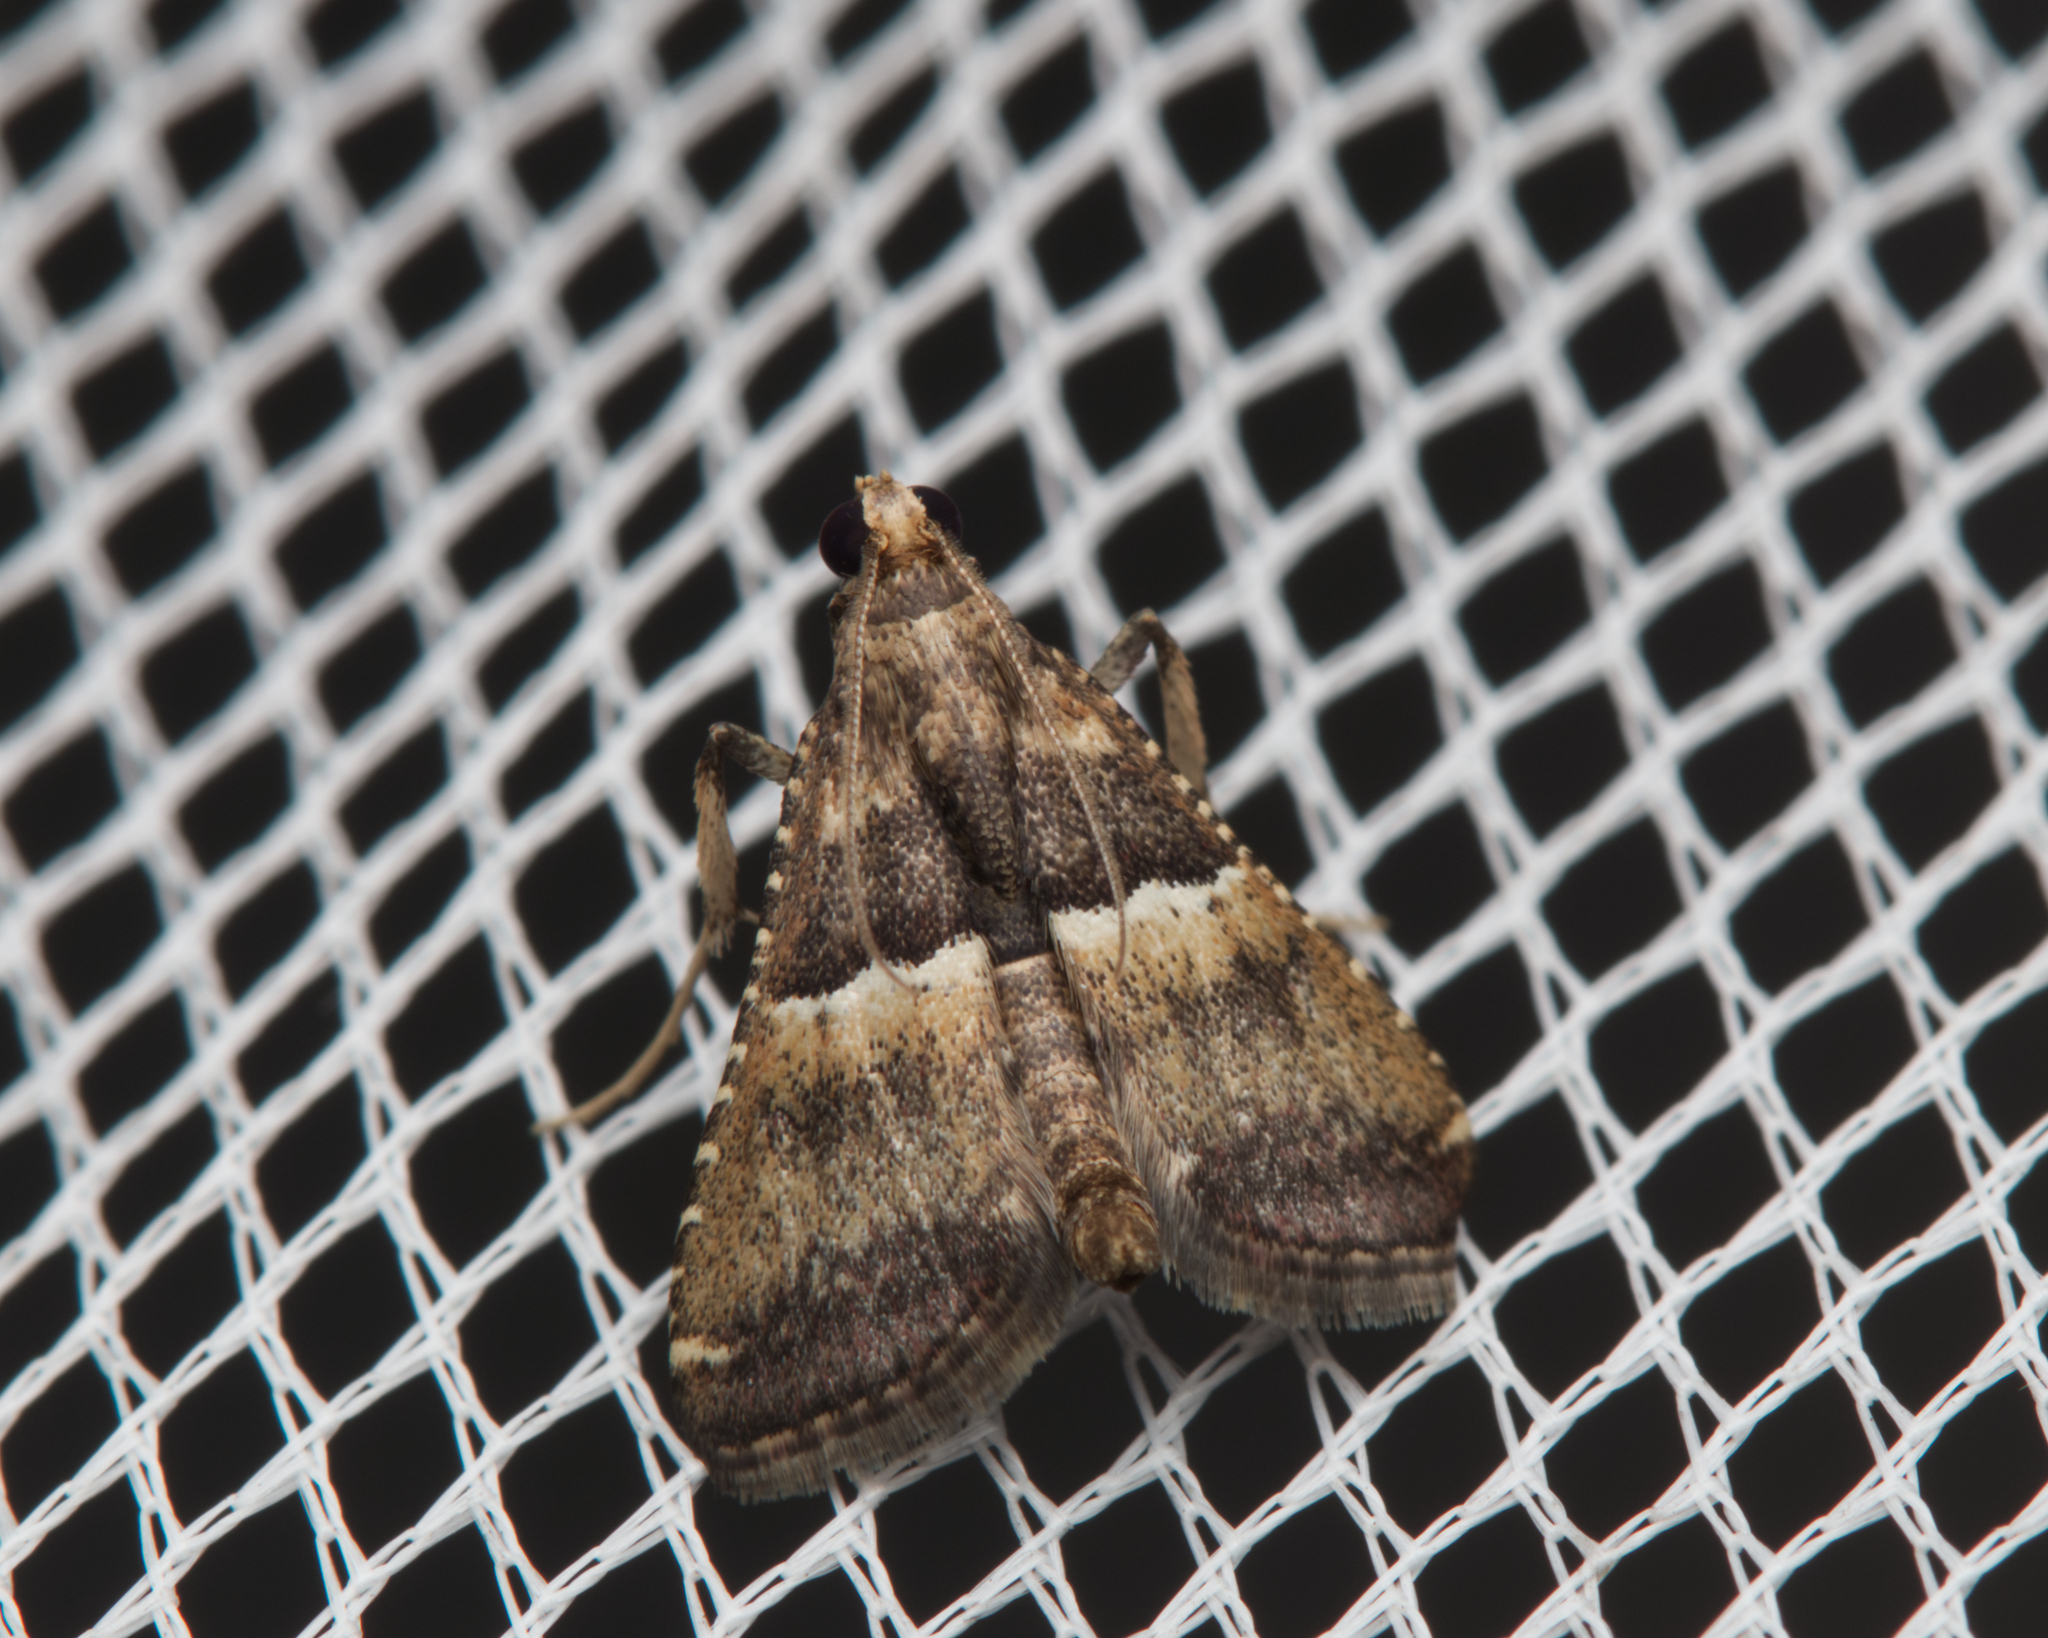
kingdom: Animalia
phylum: Arthropoda
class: Insecta
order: Lepidoptera
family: Pyralidae
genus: Endotricha
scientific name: Endotricha puncticostalis
